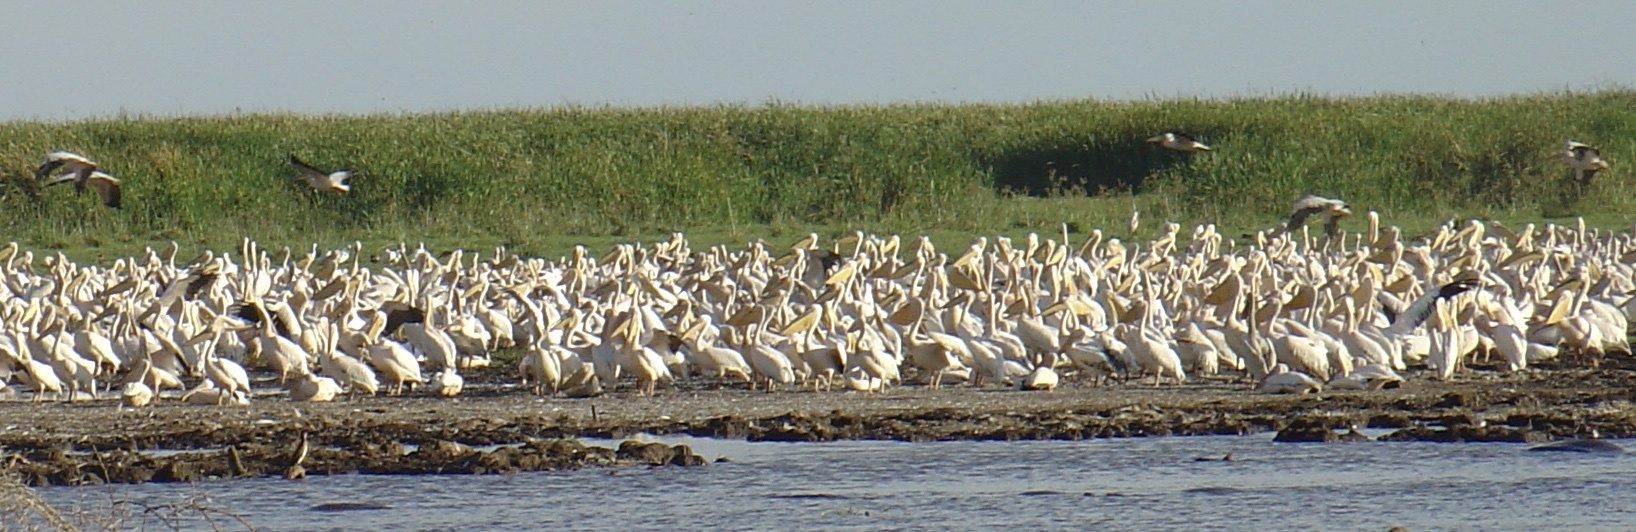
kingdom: Animalia
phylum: Chordata
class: Aves
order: Pelecaniformes
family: Pelecanidae
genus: Pelecanus
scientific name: Pelecanus onocrotalus
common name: Great white pelican
